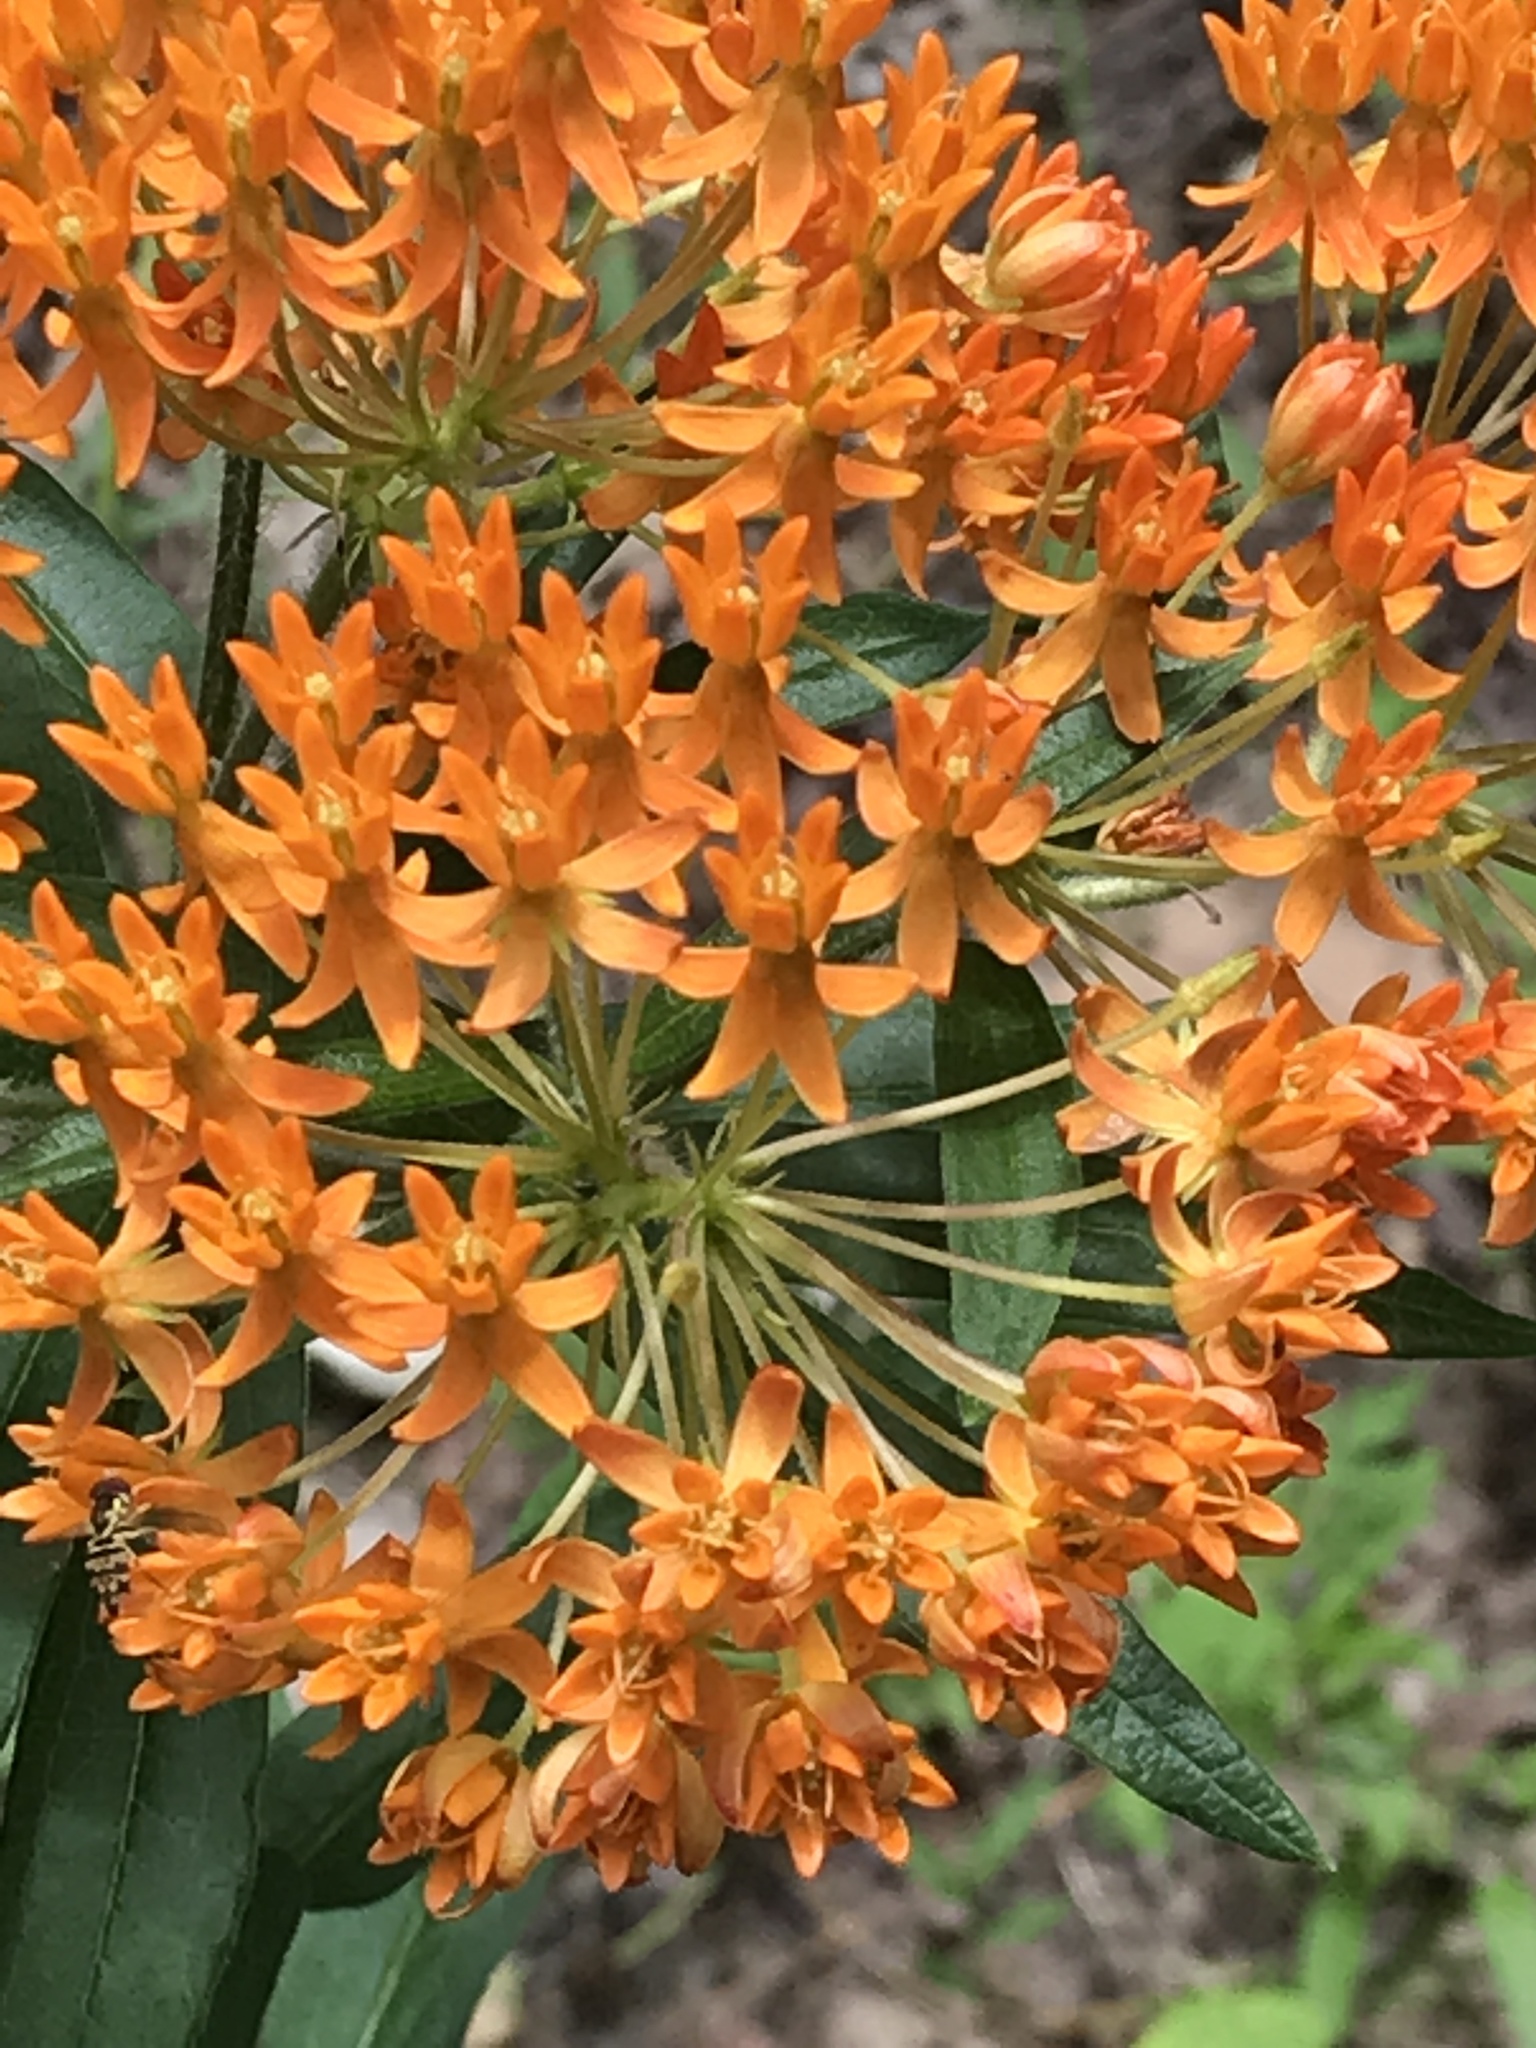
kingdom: Plantae
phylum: Tracheophyta
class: Magnoliopsida
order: Gentianales
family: Apocynaceae
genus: Asclepias
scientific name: Asclepias tuberosa
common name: Butterfly milkweed
